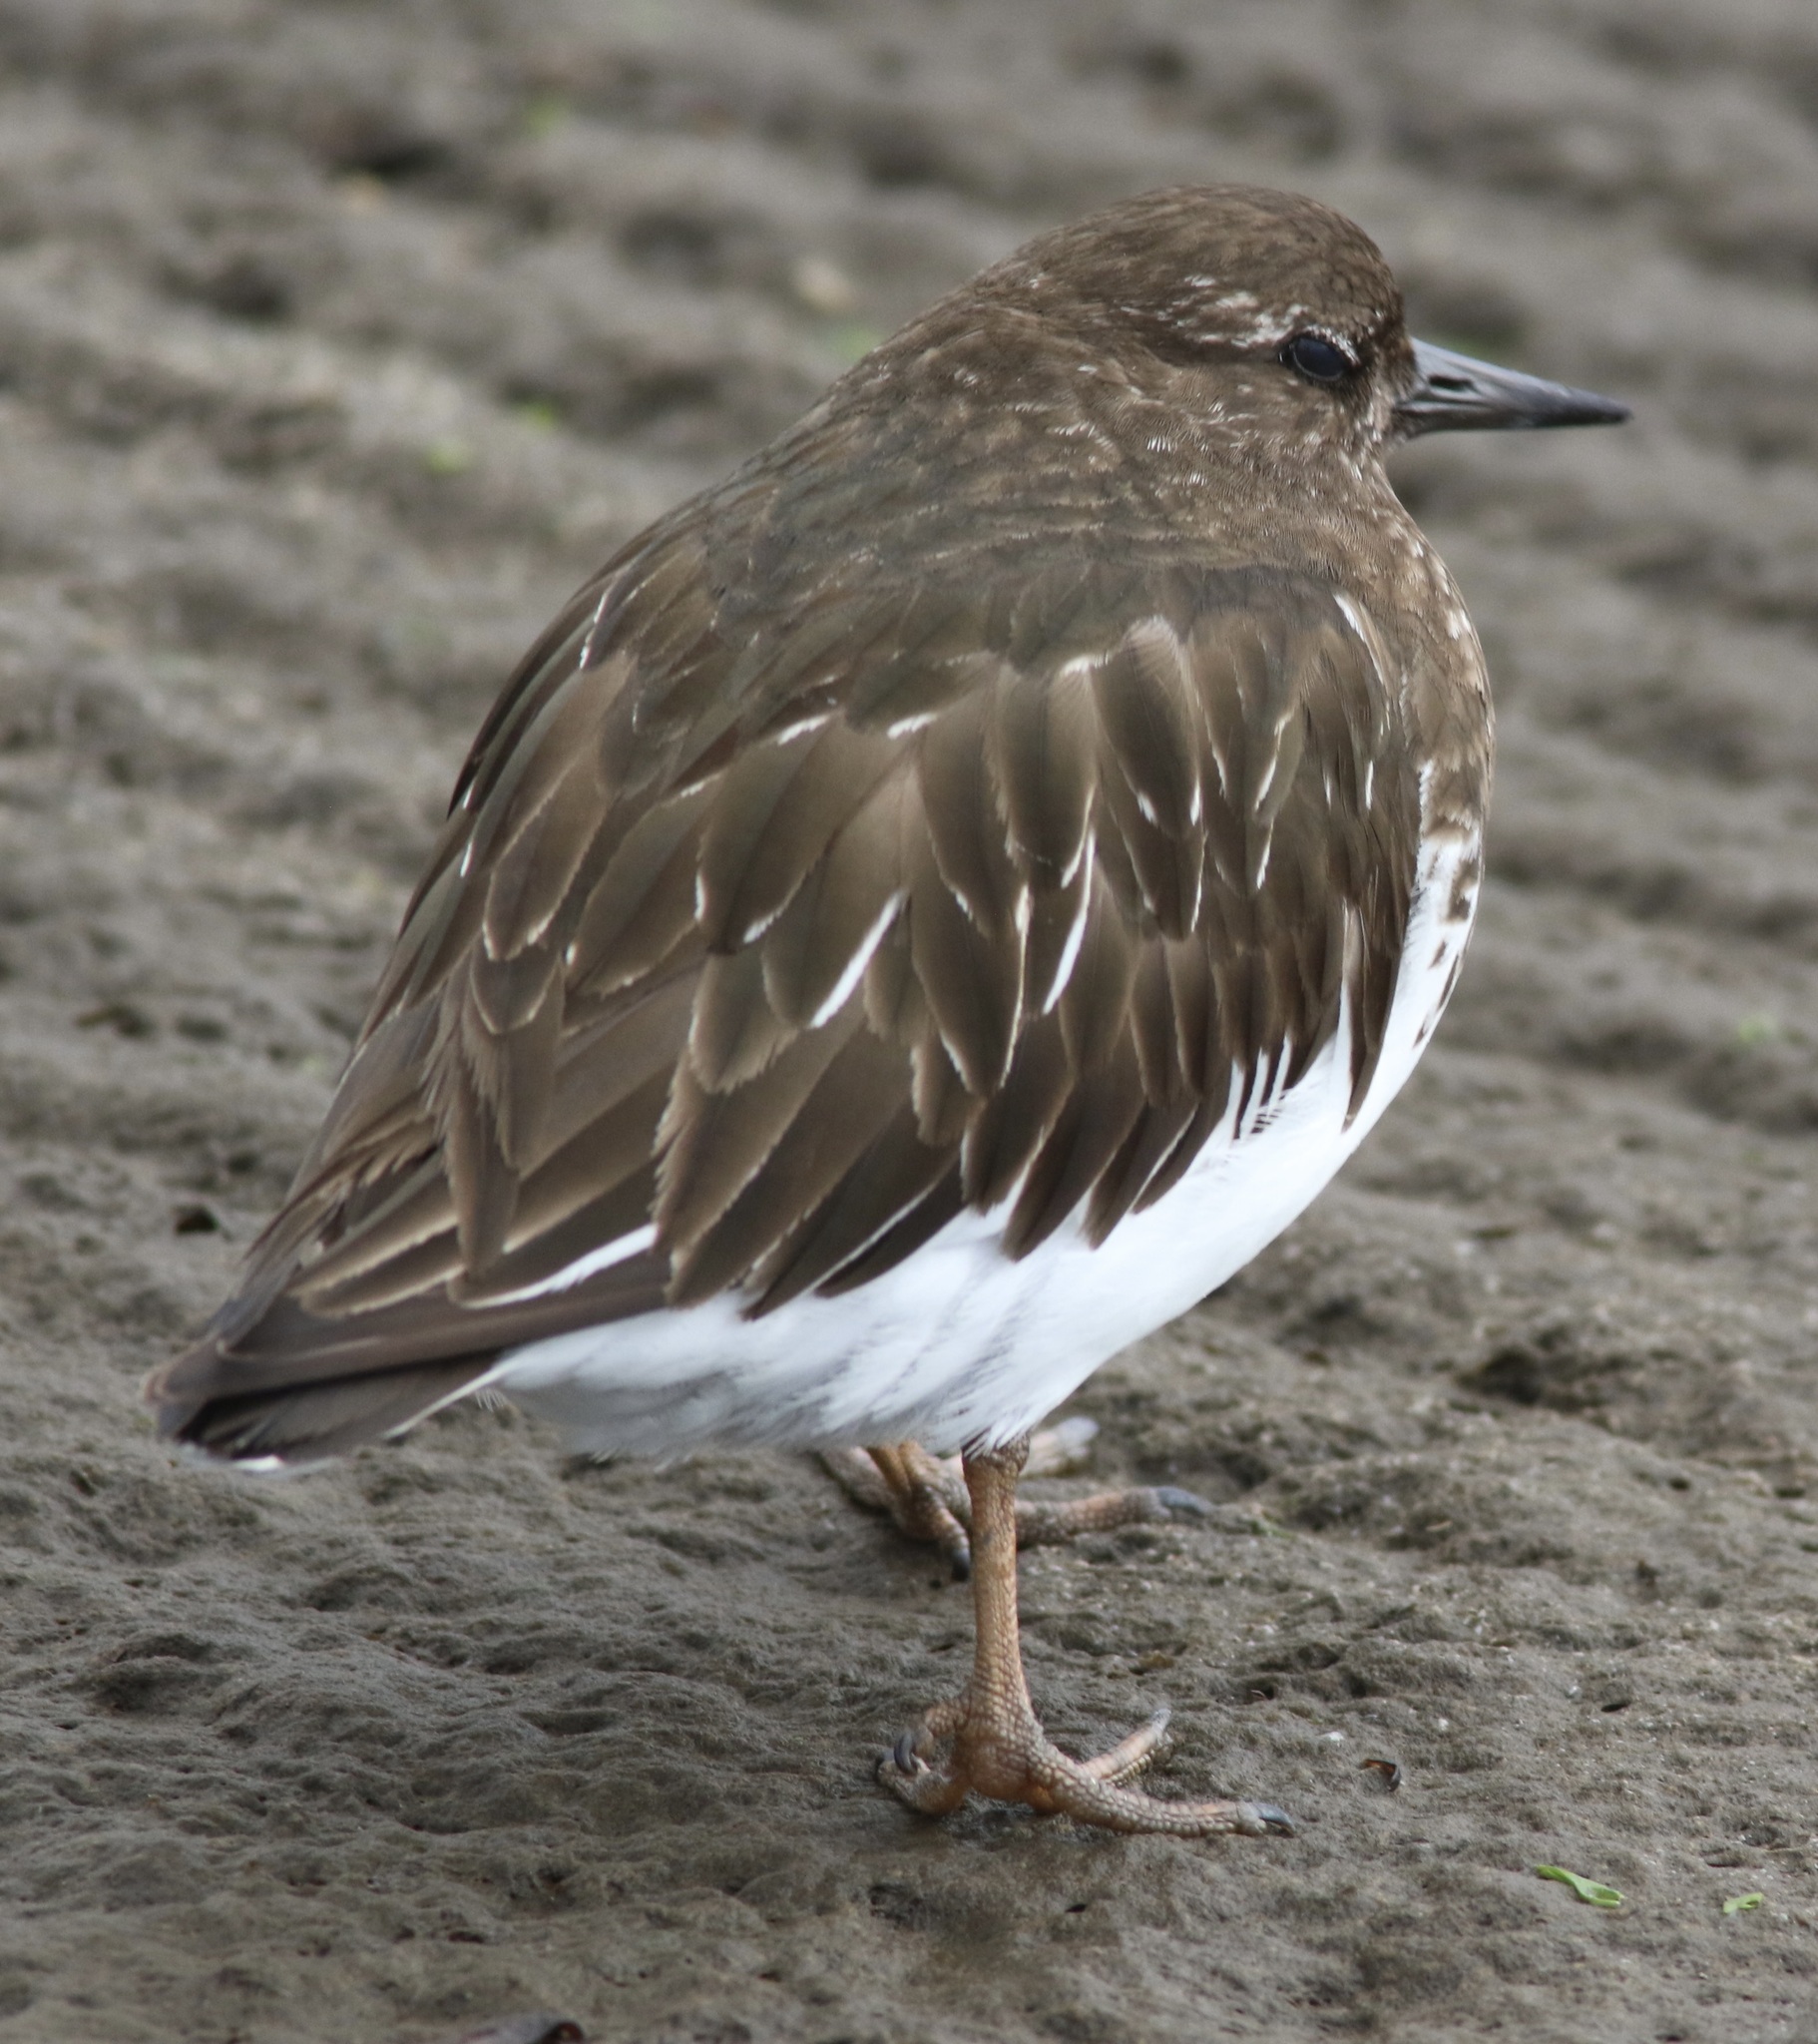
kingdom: Animalia
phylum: Chordata
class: Aves
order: Charadriiformes
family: Scolopacidae
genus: Arenaria
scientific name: Arenaria melanocephala
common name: Black turnstone
